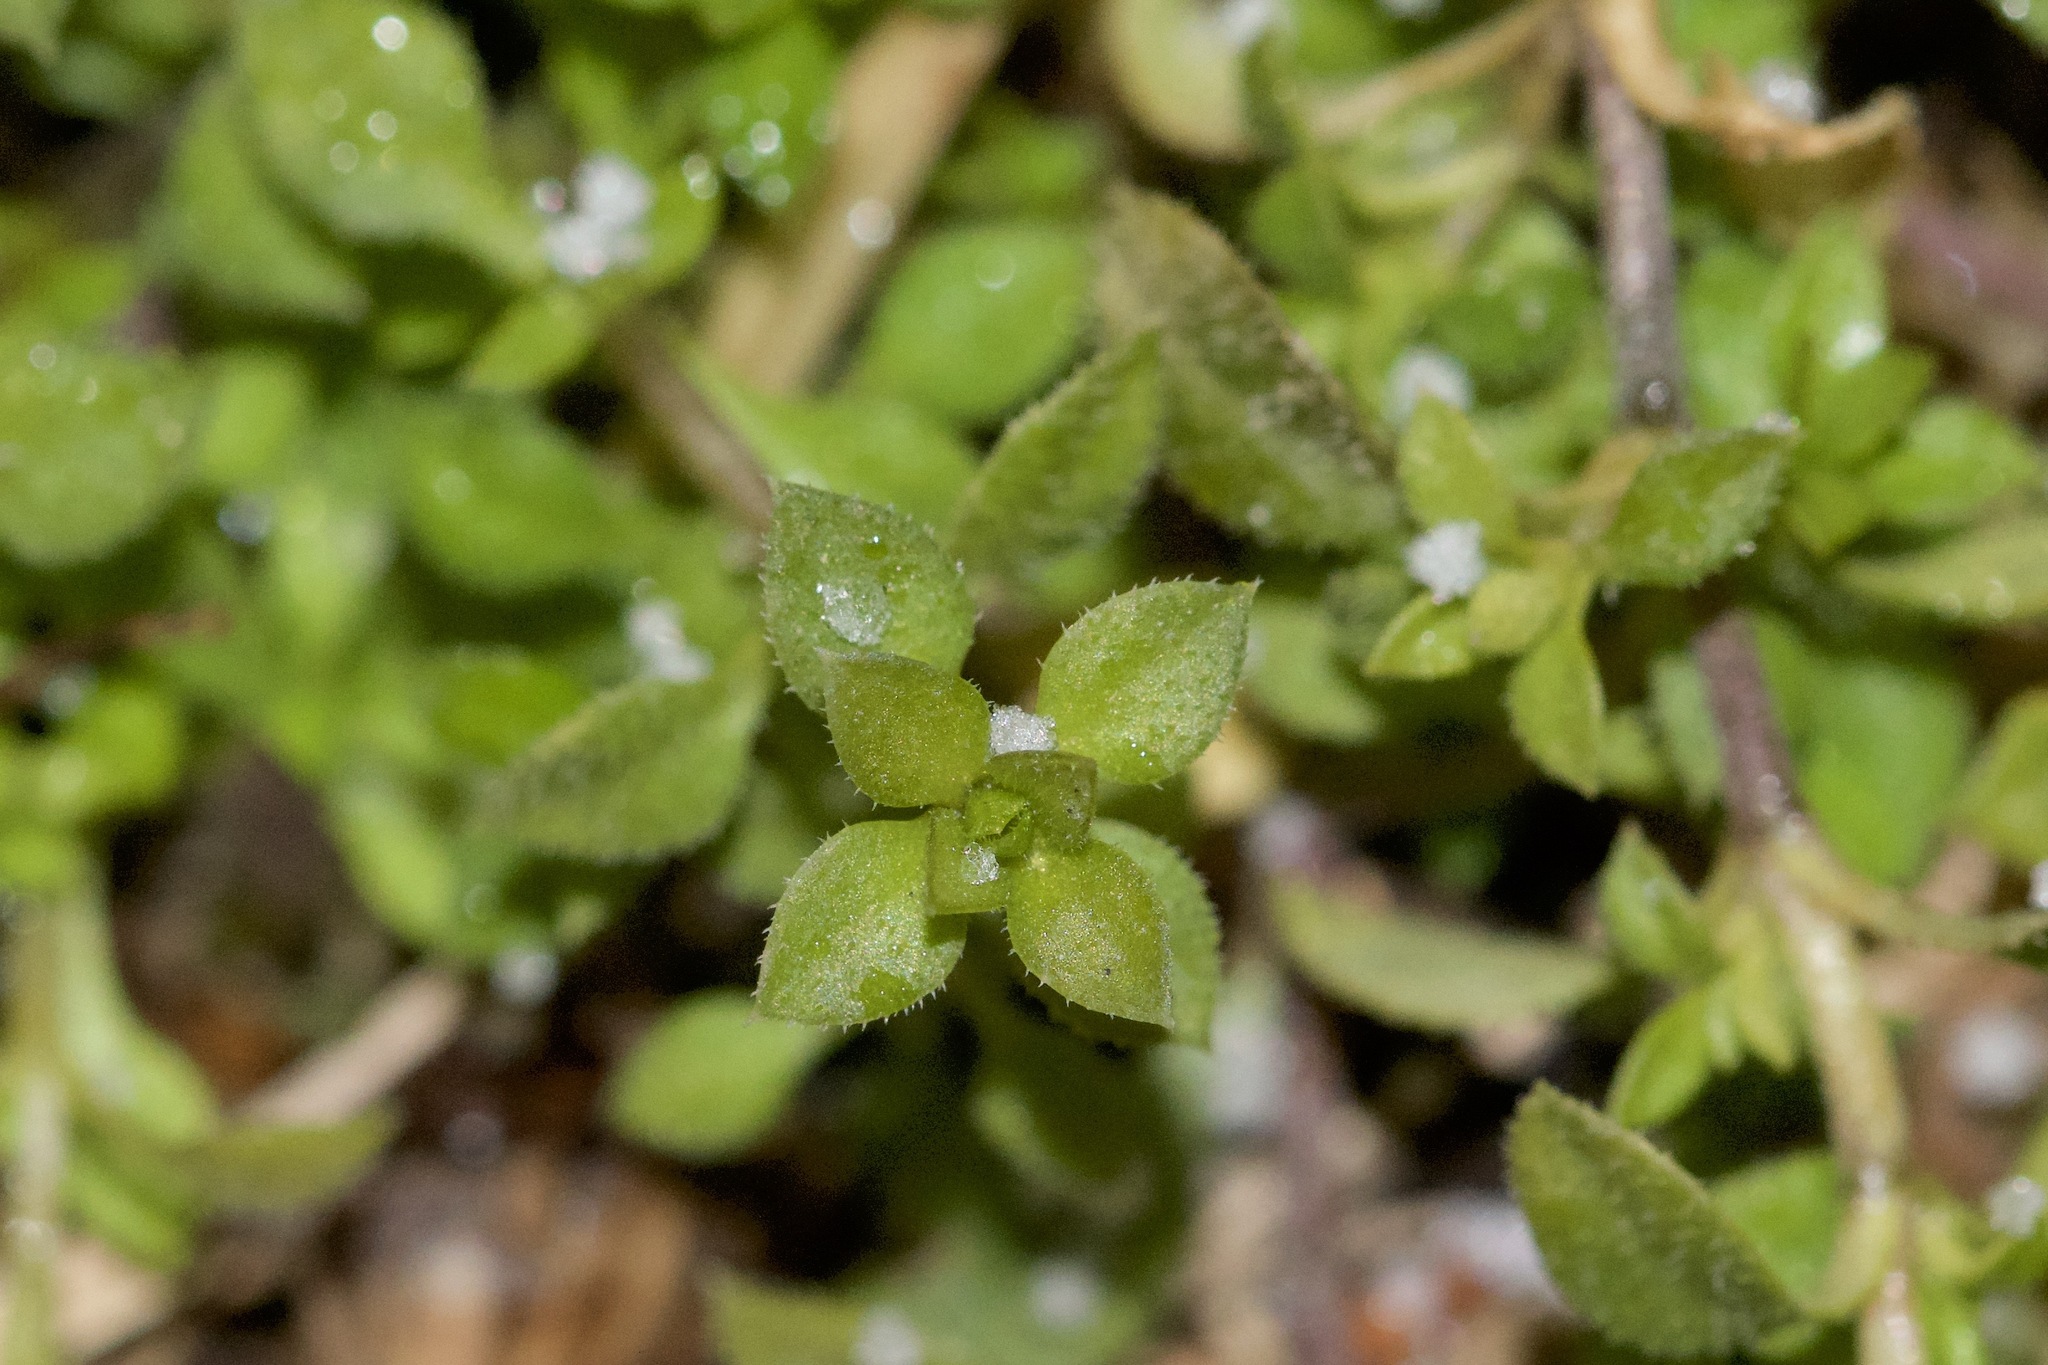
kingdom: Plantae
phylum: Tracheophyta
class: Magnoliopsida
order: Caryophyllales
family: Caryophyllaceae
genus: Arenaria
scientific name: Arenaria serpyllifolia
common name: Thyme-leaved sandwort
